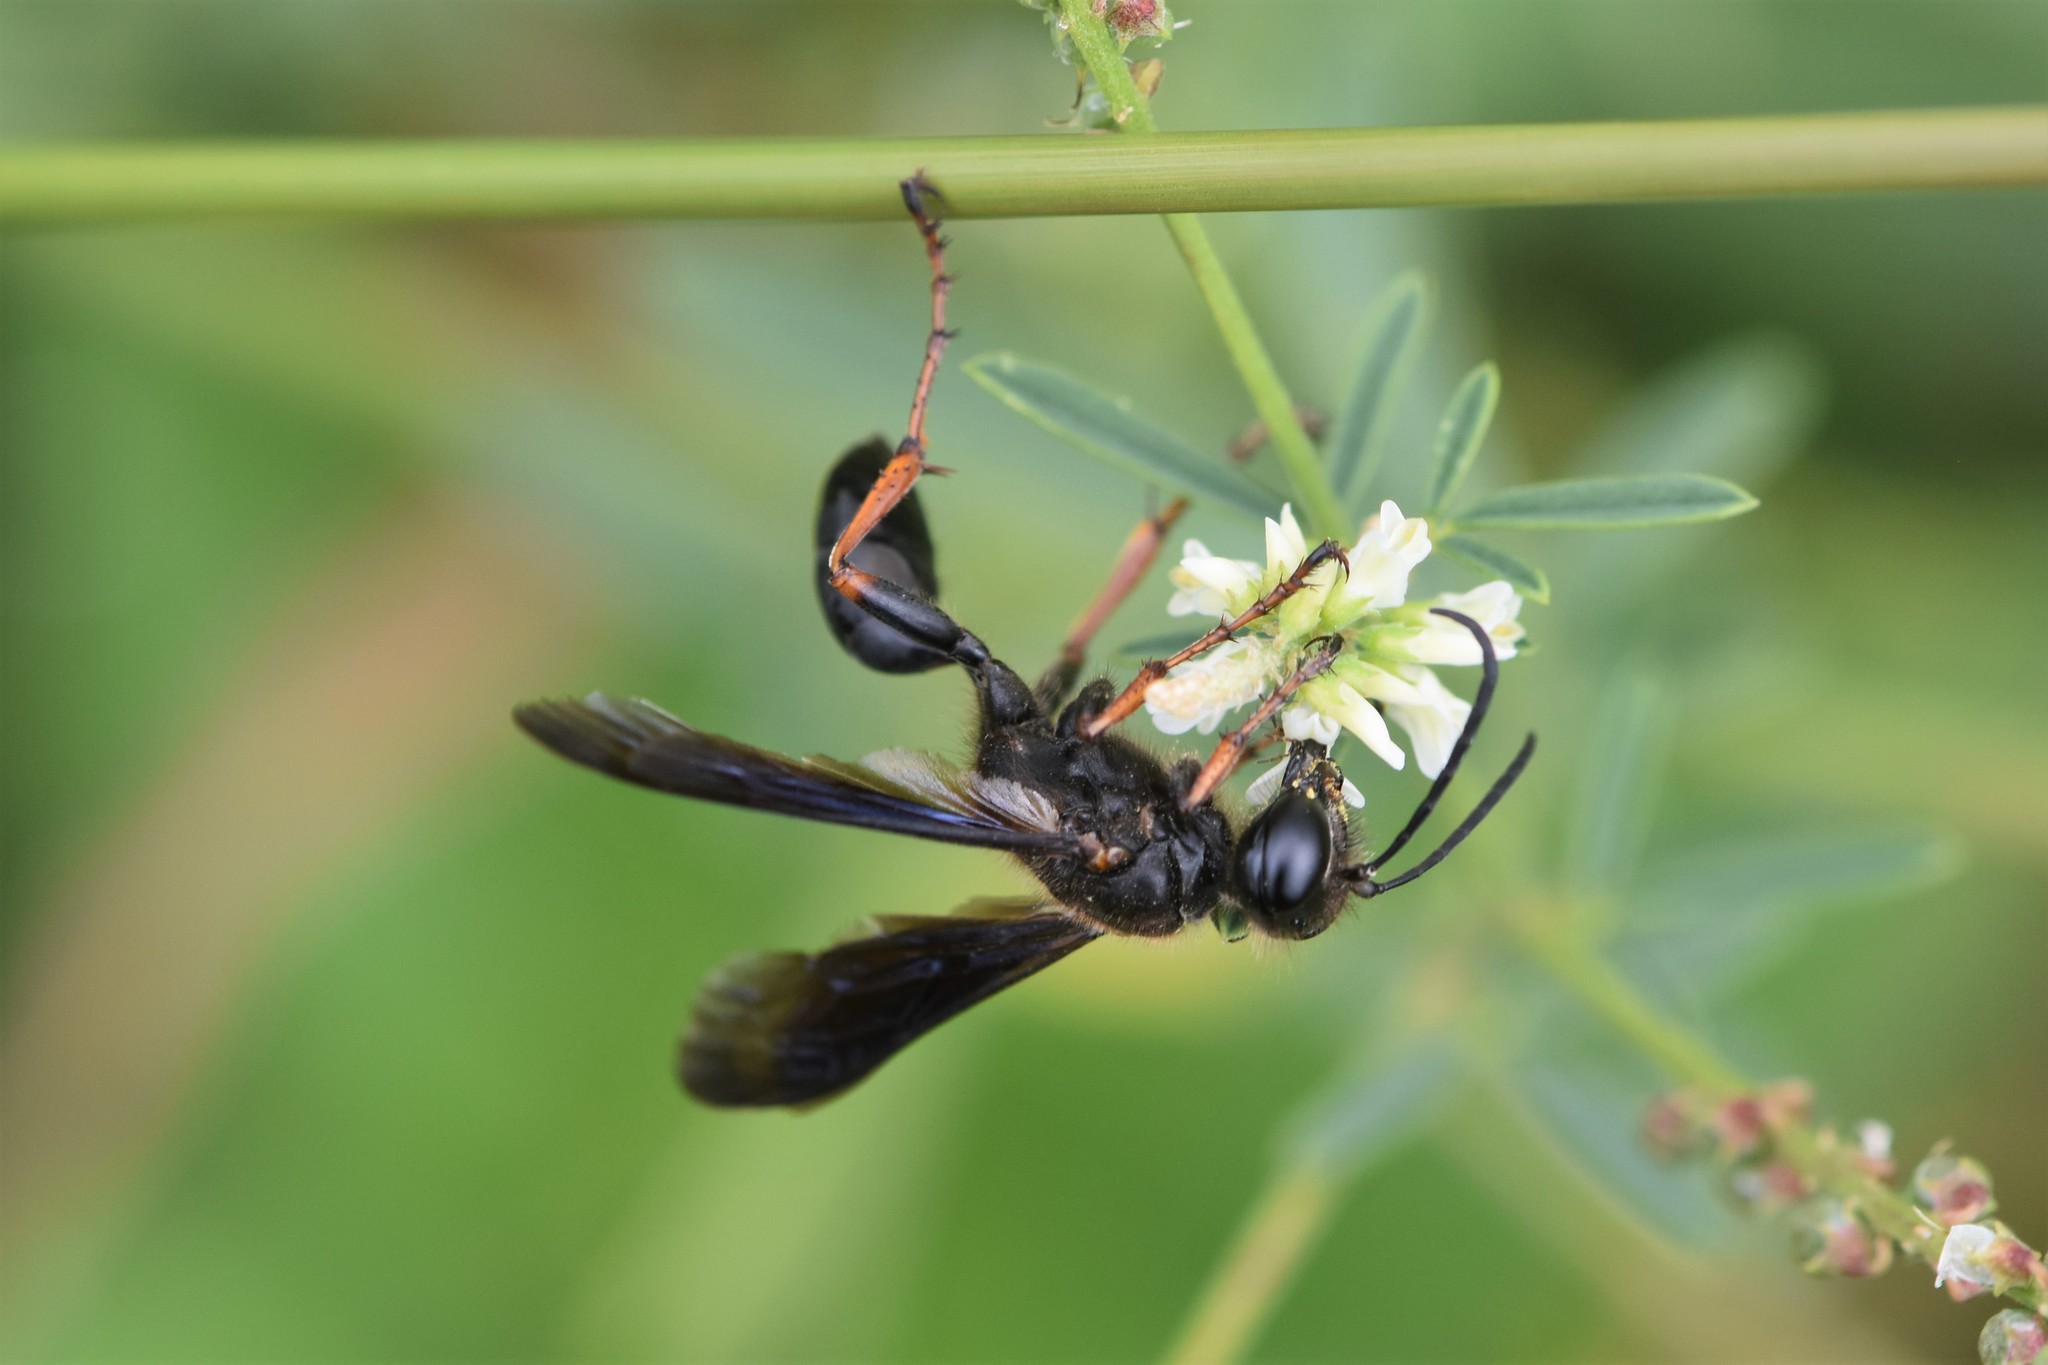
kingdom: Animalia
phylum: Arthropoda
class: Insecta
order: Hymenoptera
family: Sphecidae
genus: Isodontia
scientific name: Isodontia auripes
